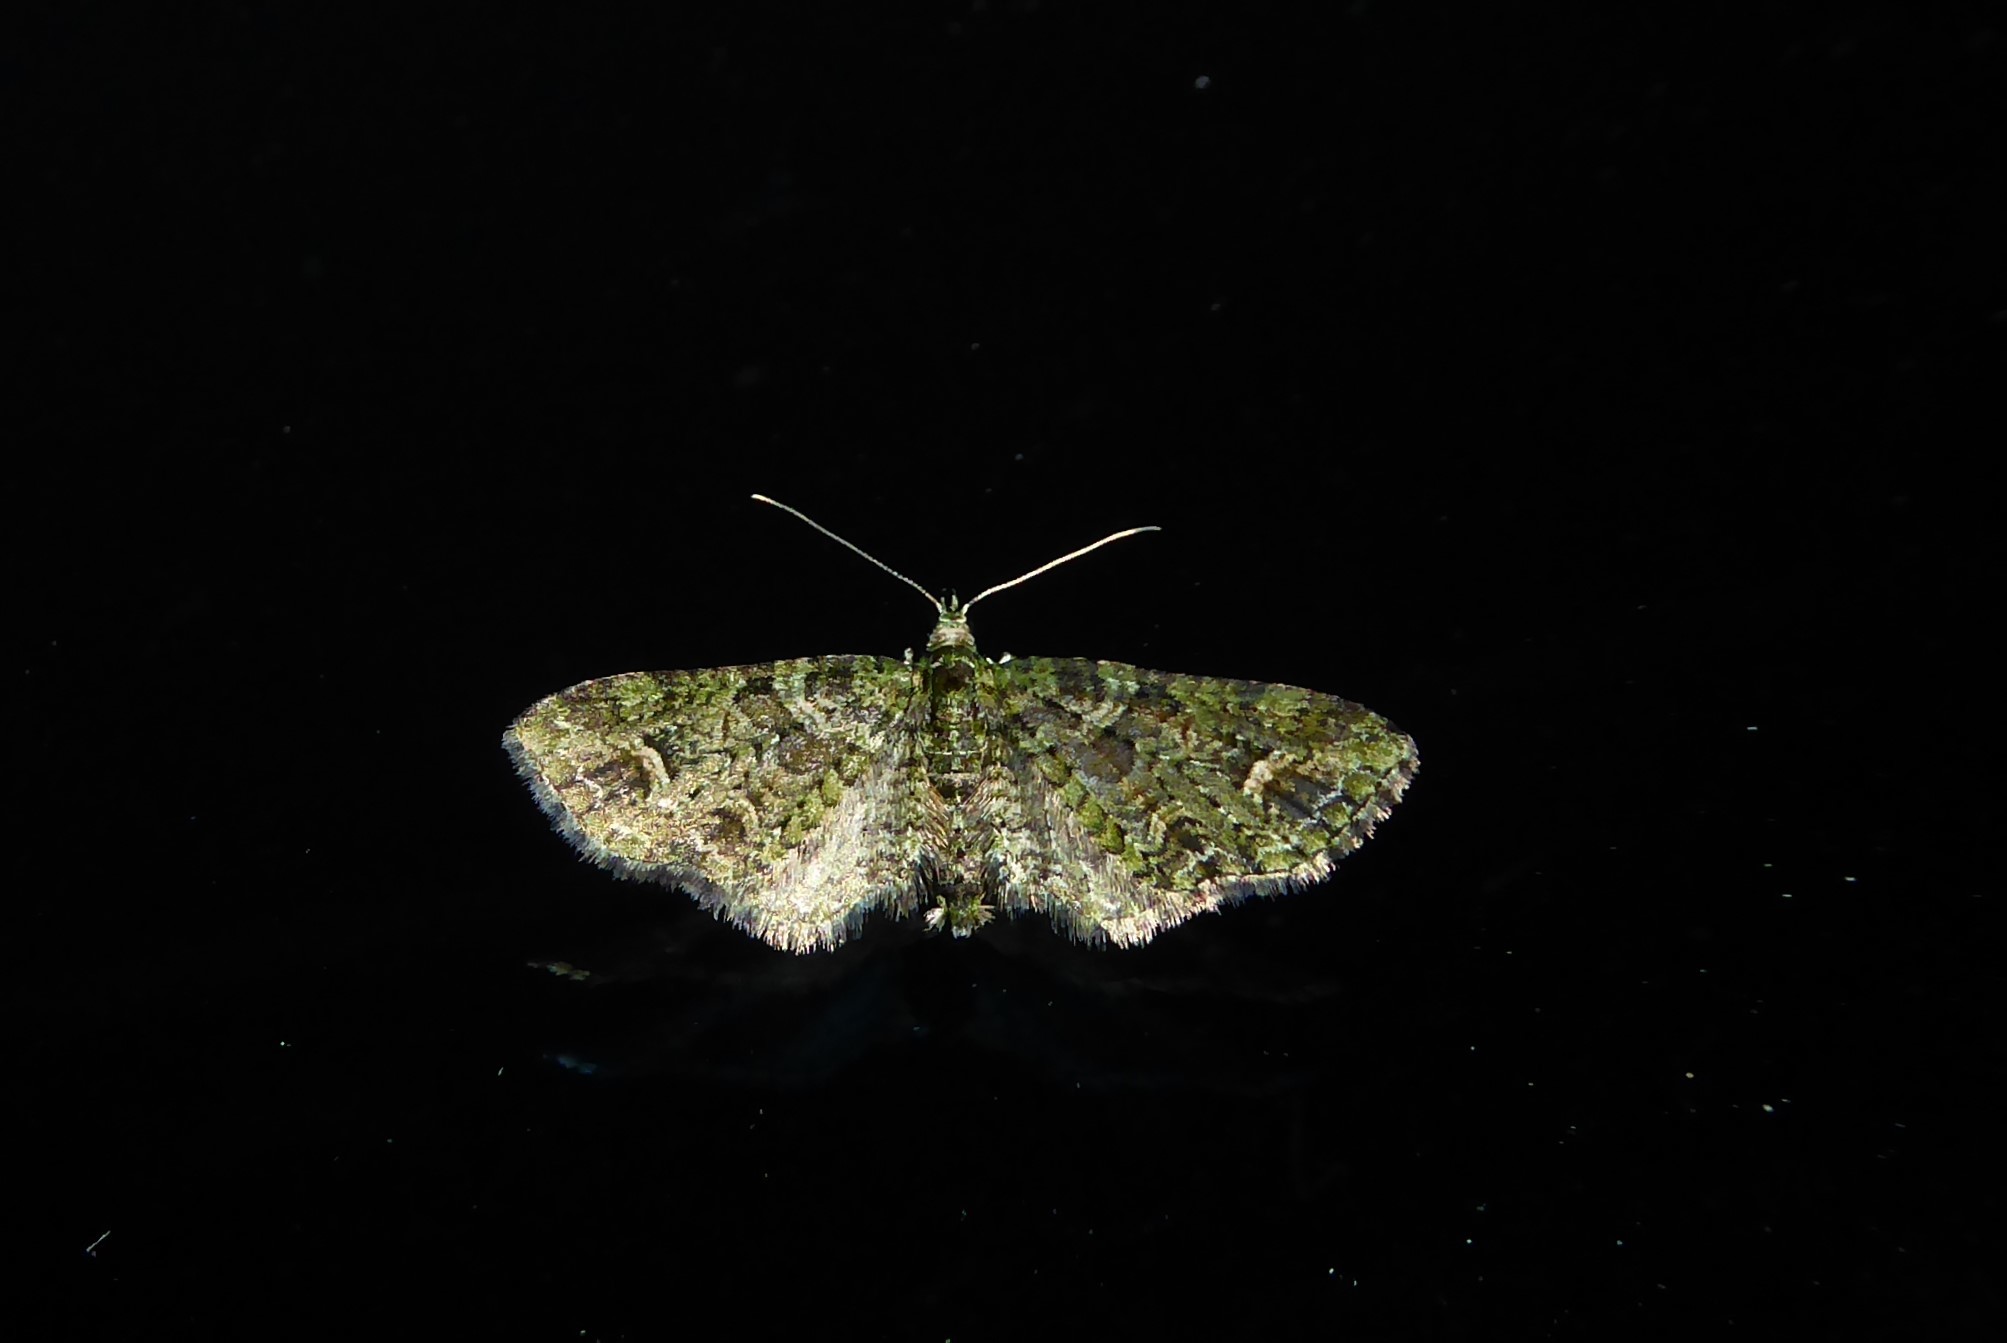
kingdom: Animalia
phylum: Arthropoda
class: Insecta
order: Lepidoptera
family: Geometridae
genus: Idaea
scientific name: Idaea mutanda
